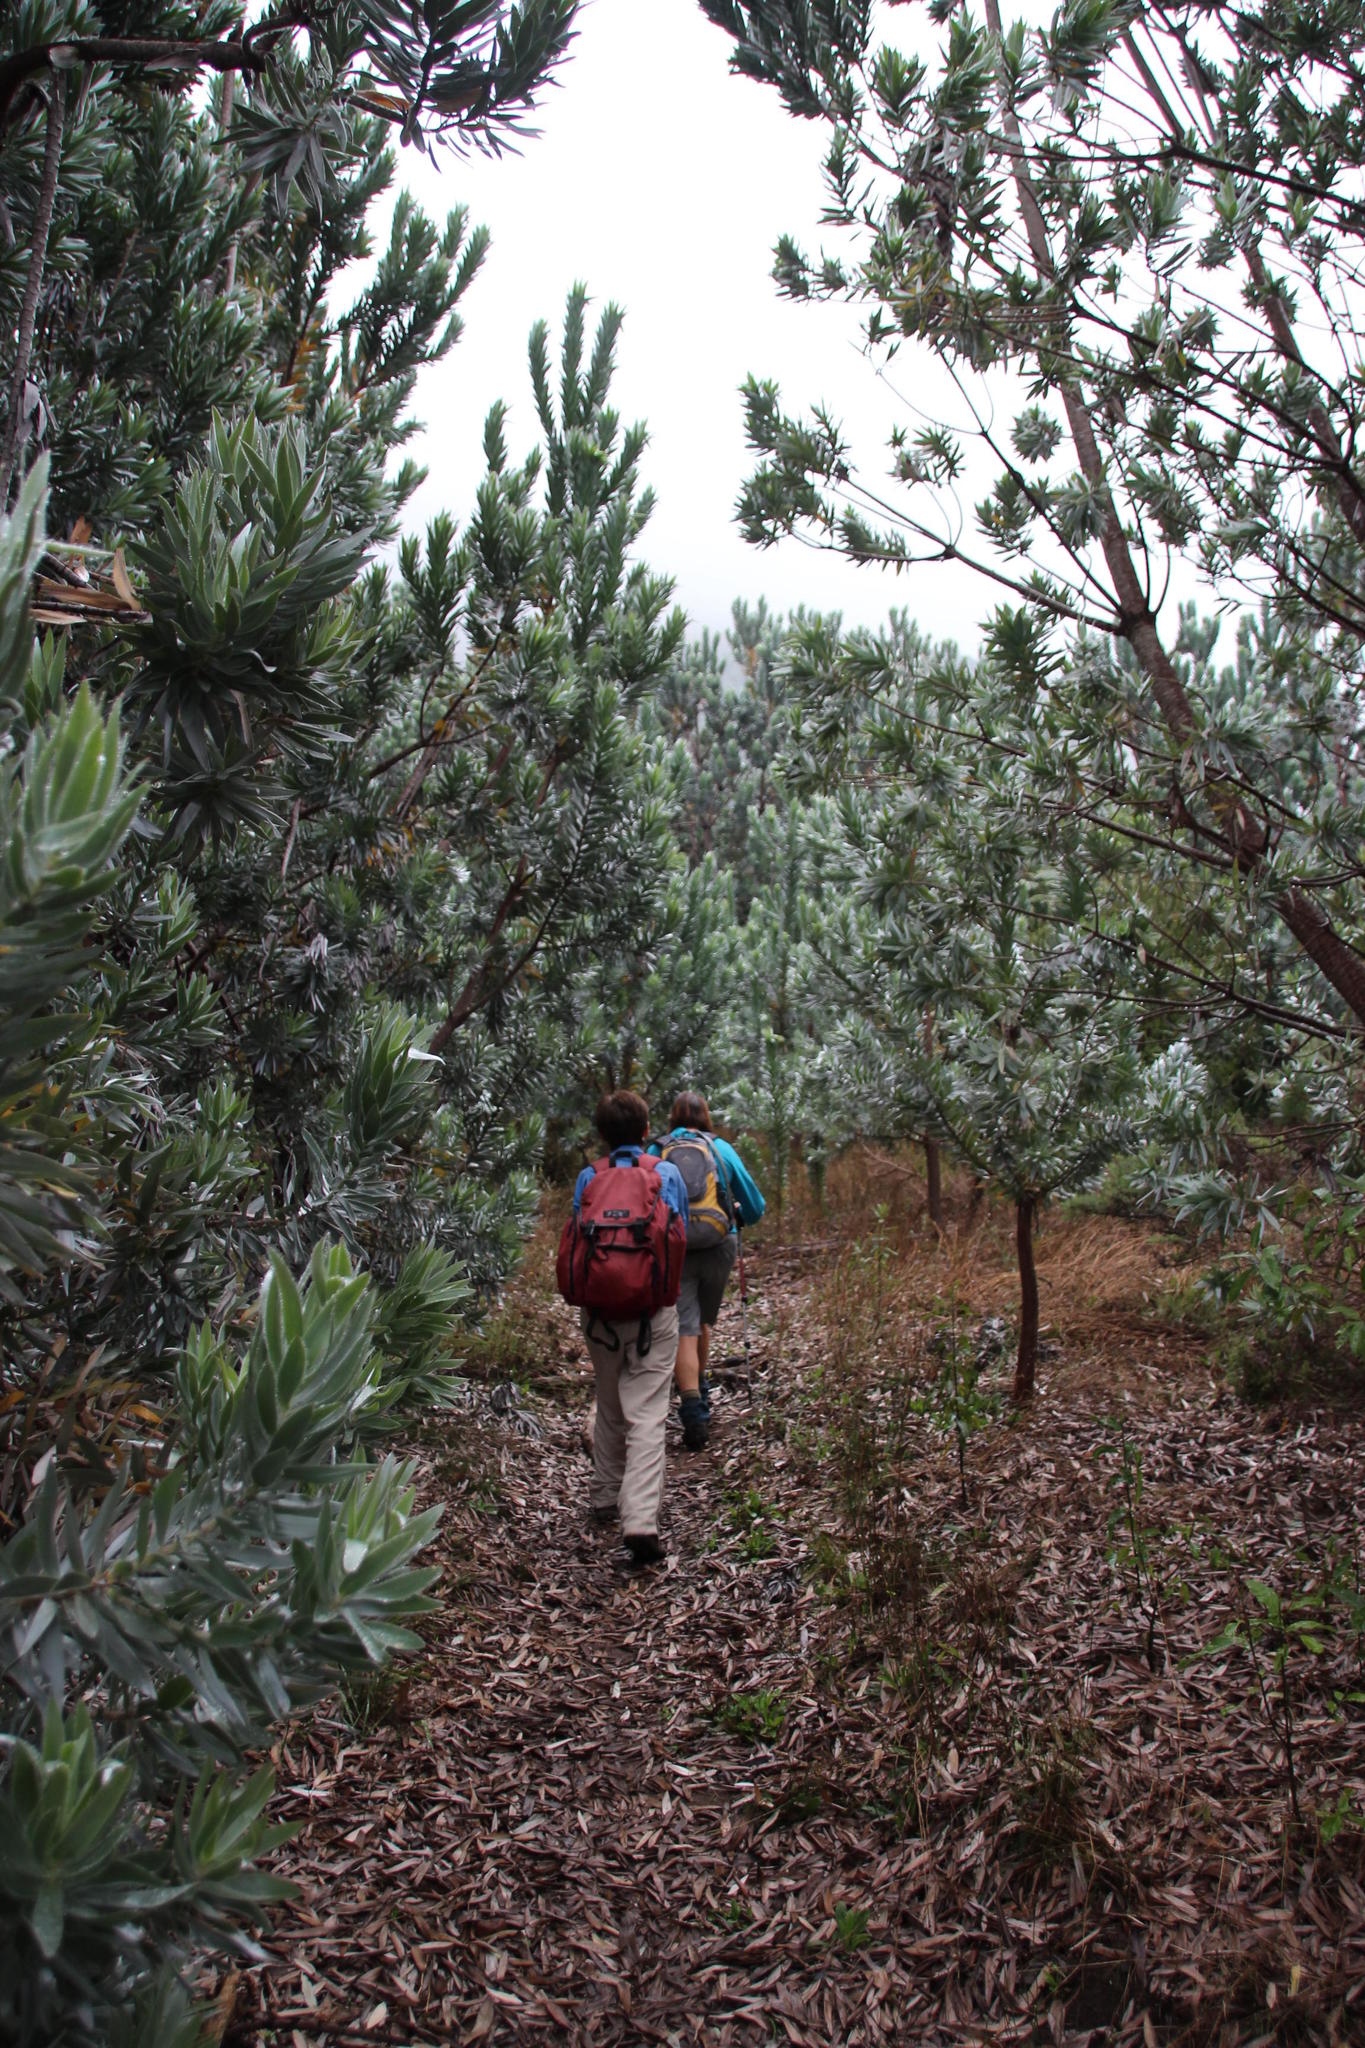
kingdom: Plantae
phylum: Tracheophyta
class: Magnoliopsida
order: Proteales
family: Proteaceae
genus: Leucadendron
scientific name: Leucadendron argenteum
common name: Cape silver tree
